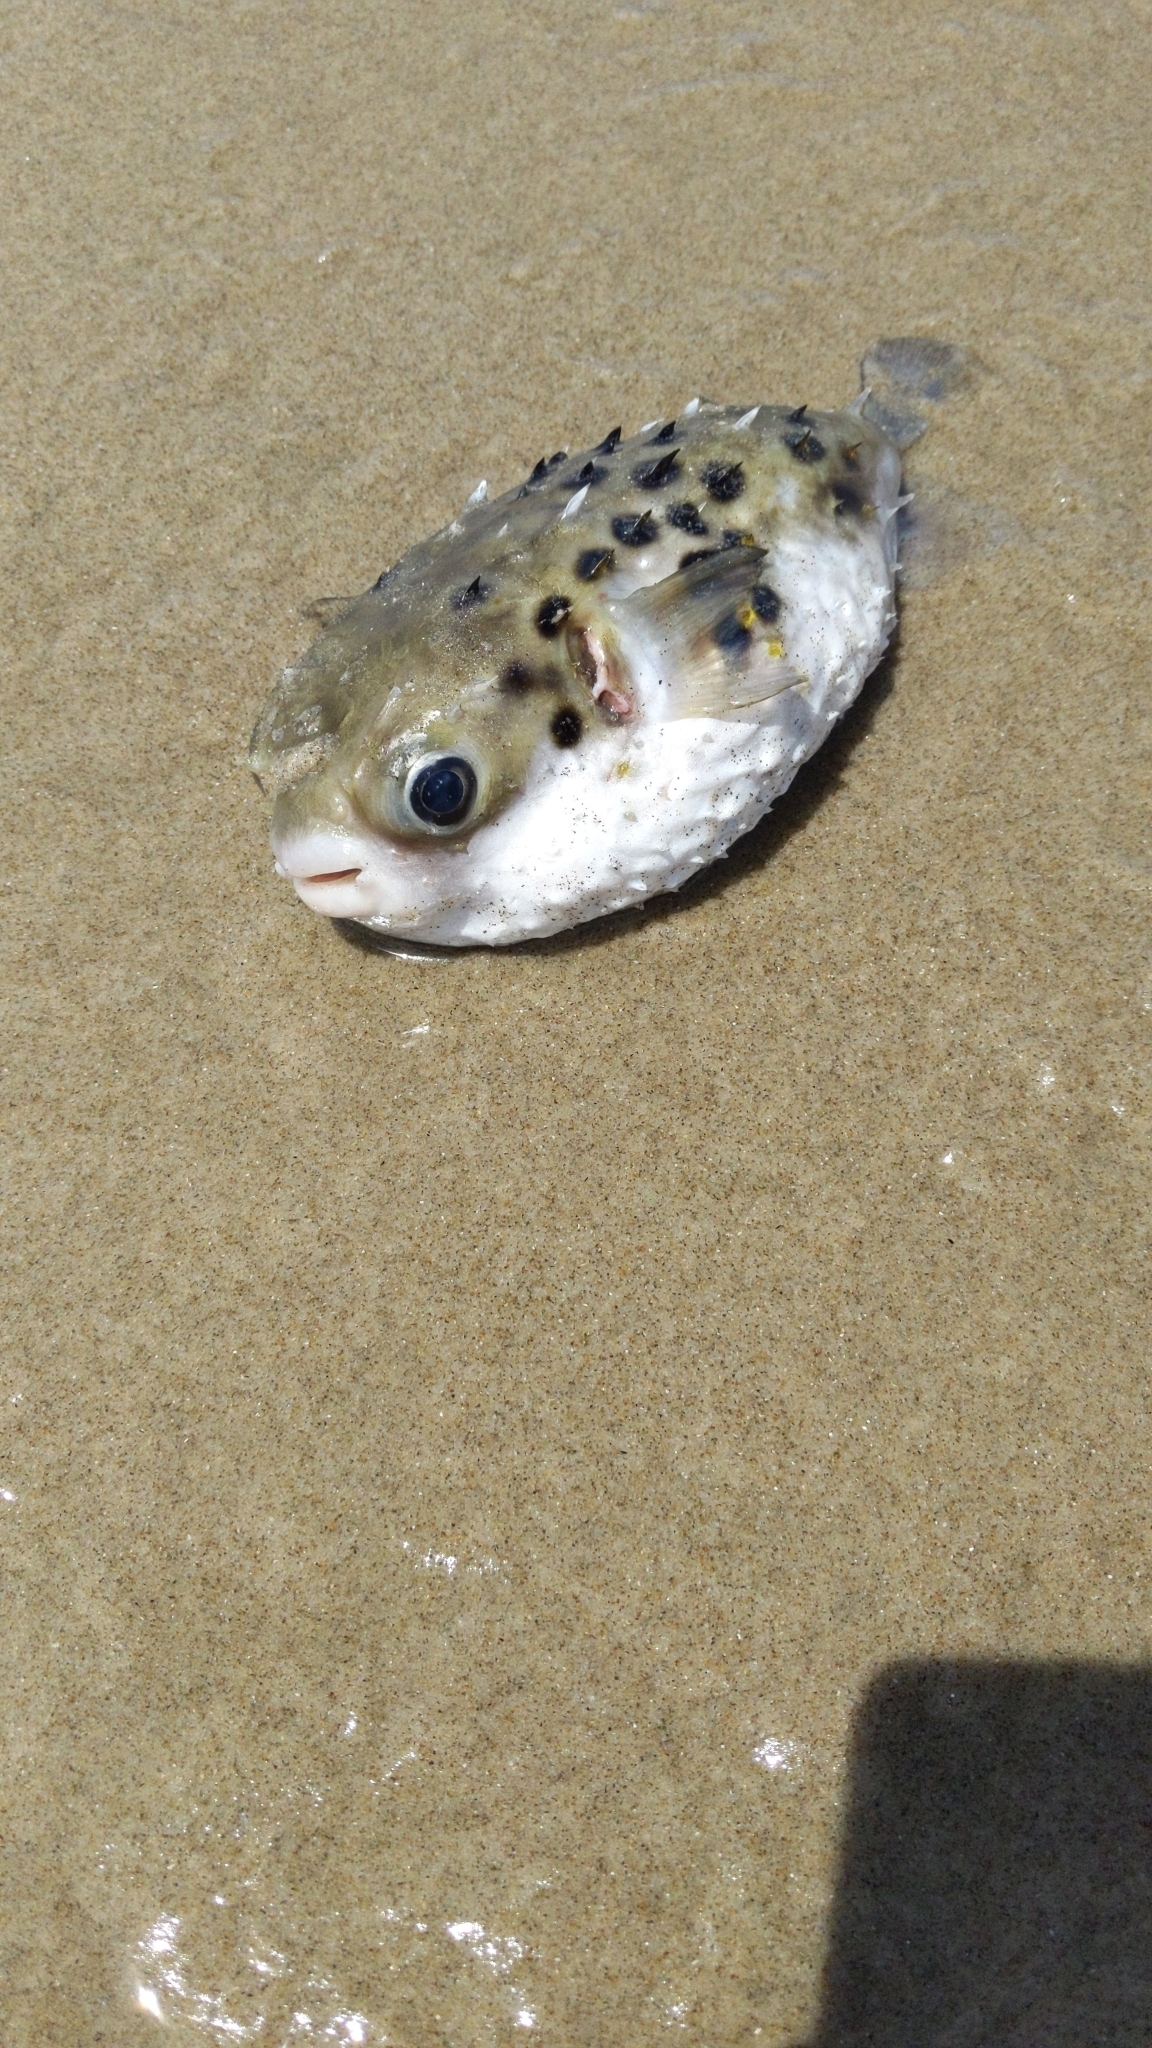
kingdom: Animalia
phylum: Chordata
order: Tetraodontiformes
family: Diodontidae
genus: Allomycterus
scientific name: Allomycterus pilatus
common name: No common name
